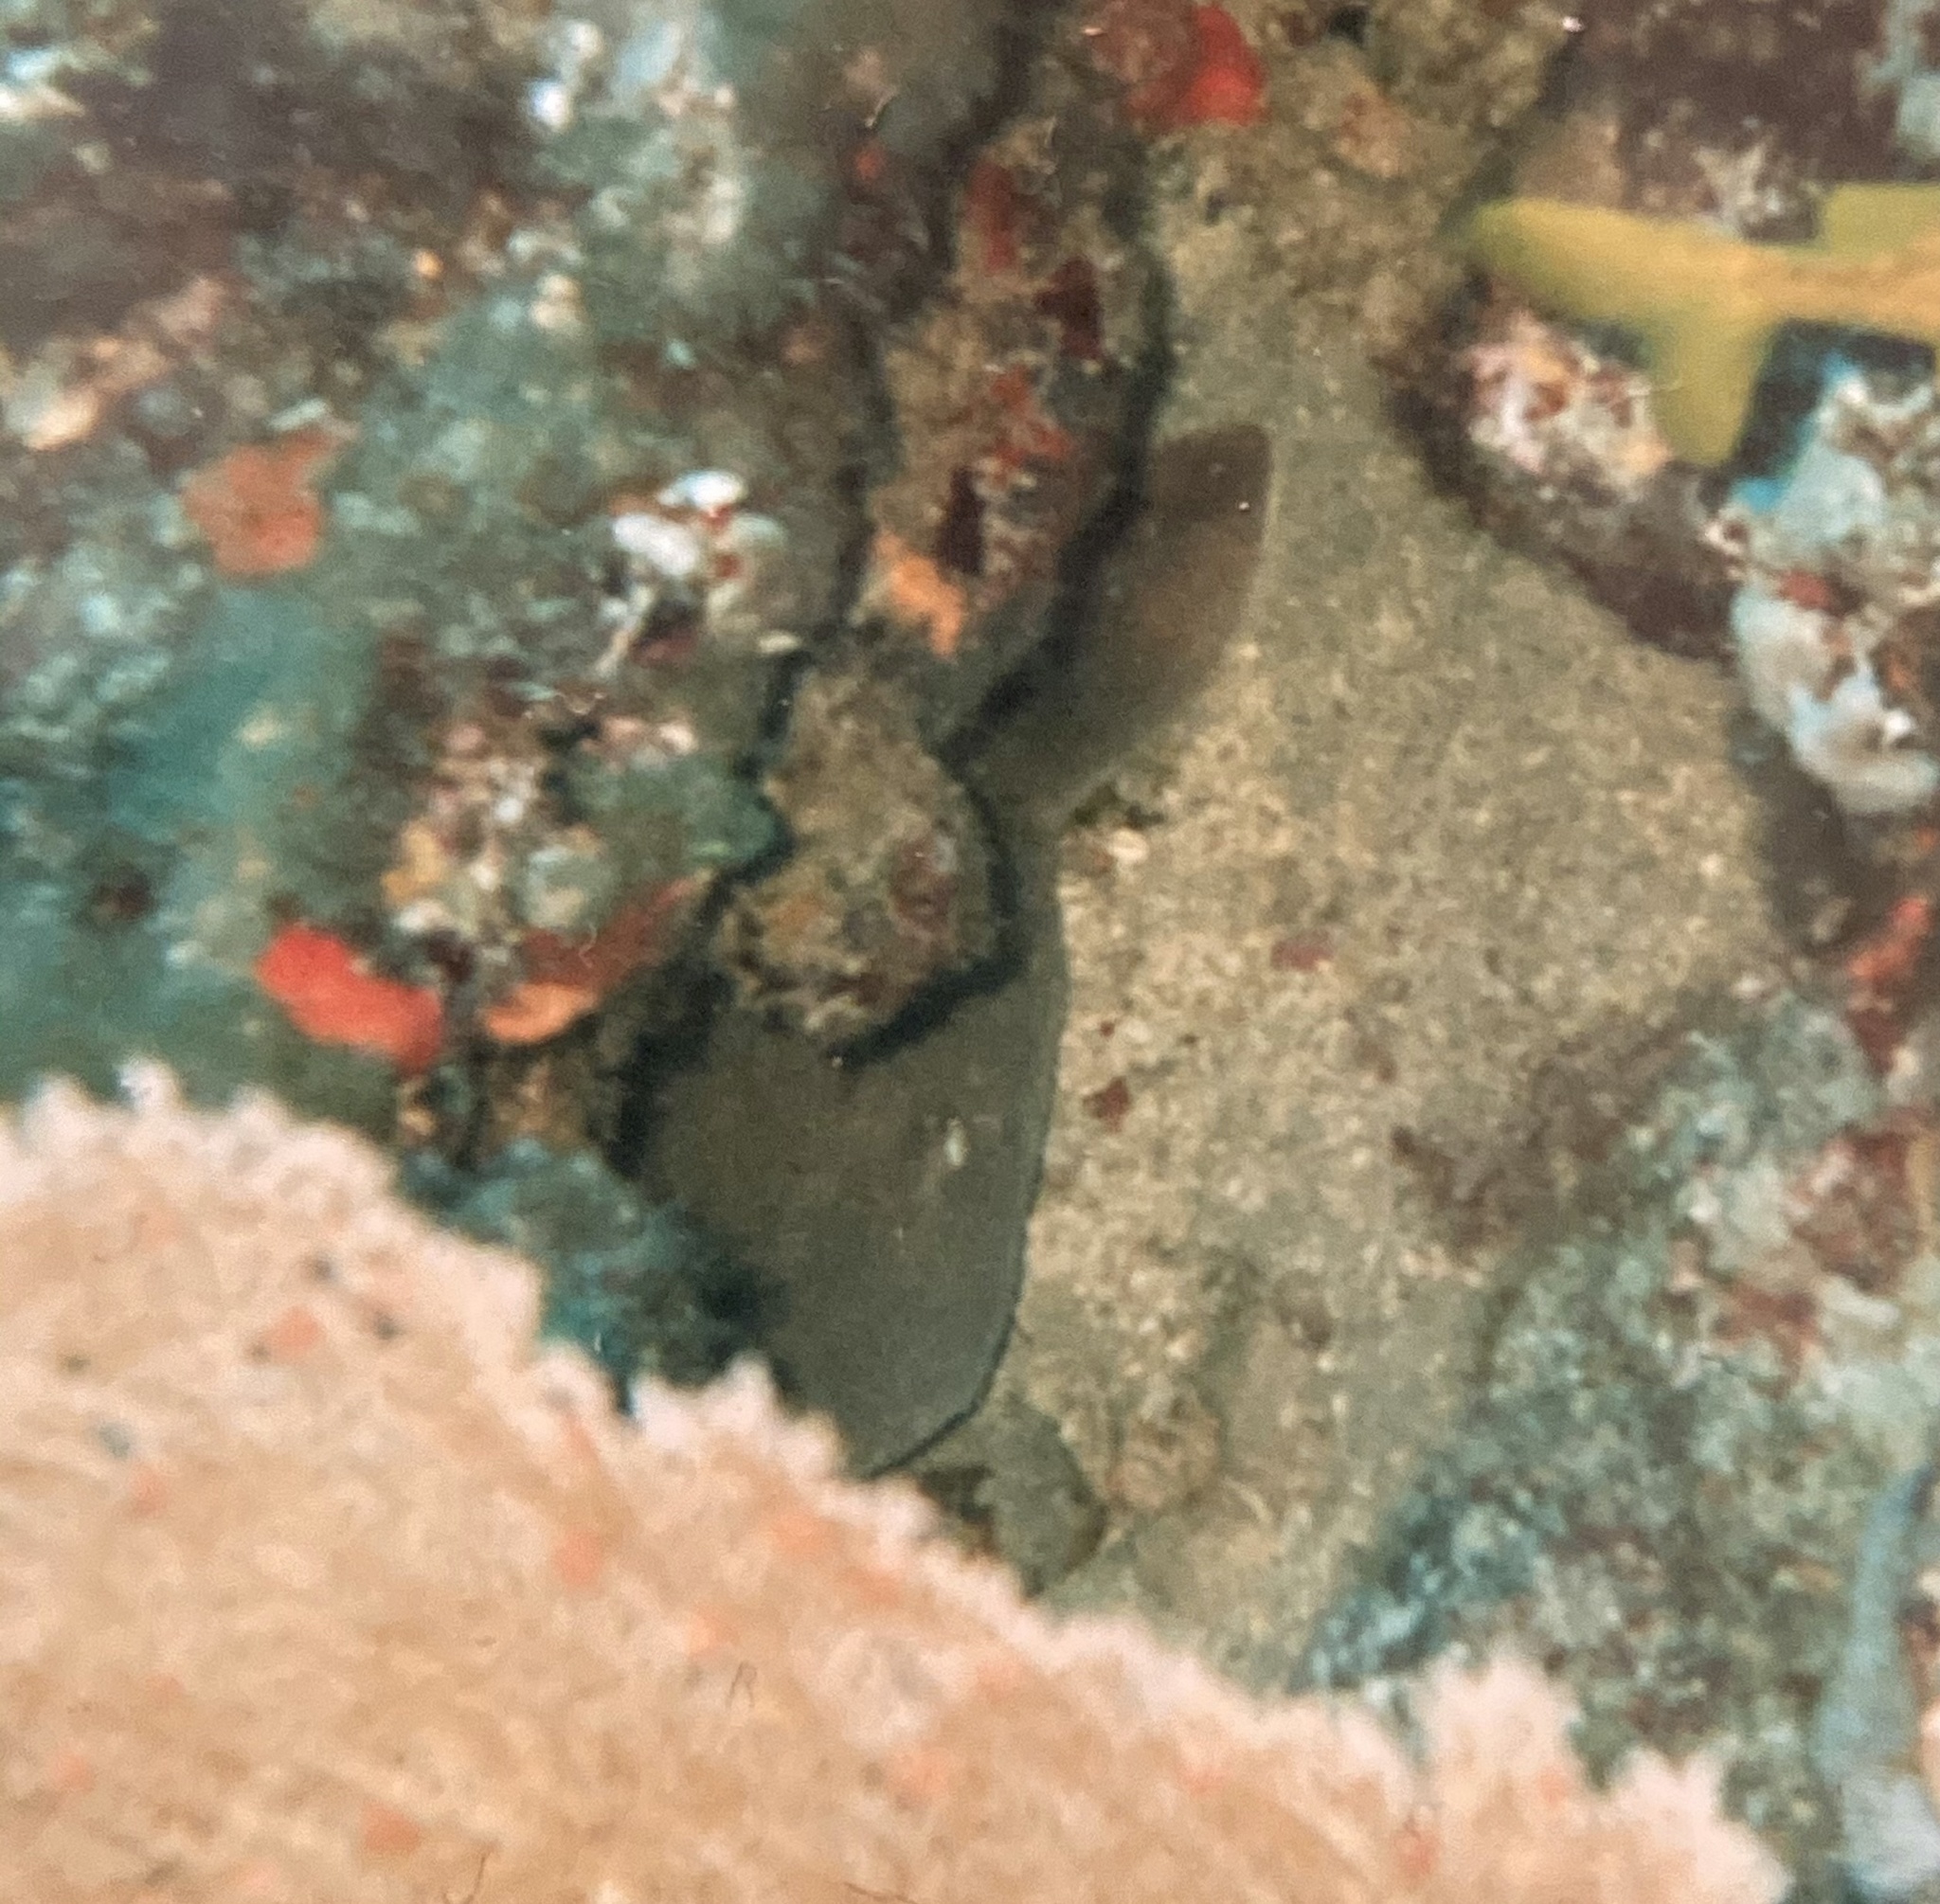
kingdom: Animalia
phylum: Chordata
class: Elasmobranchii
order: Orectolobiformes
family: Ginglymostomatidae
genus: Ginglymostoma
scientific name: Ginglymostoma cirratum
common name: Nurse shark
